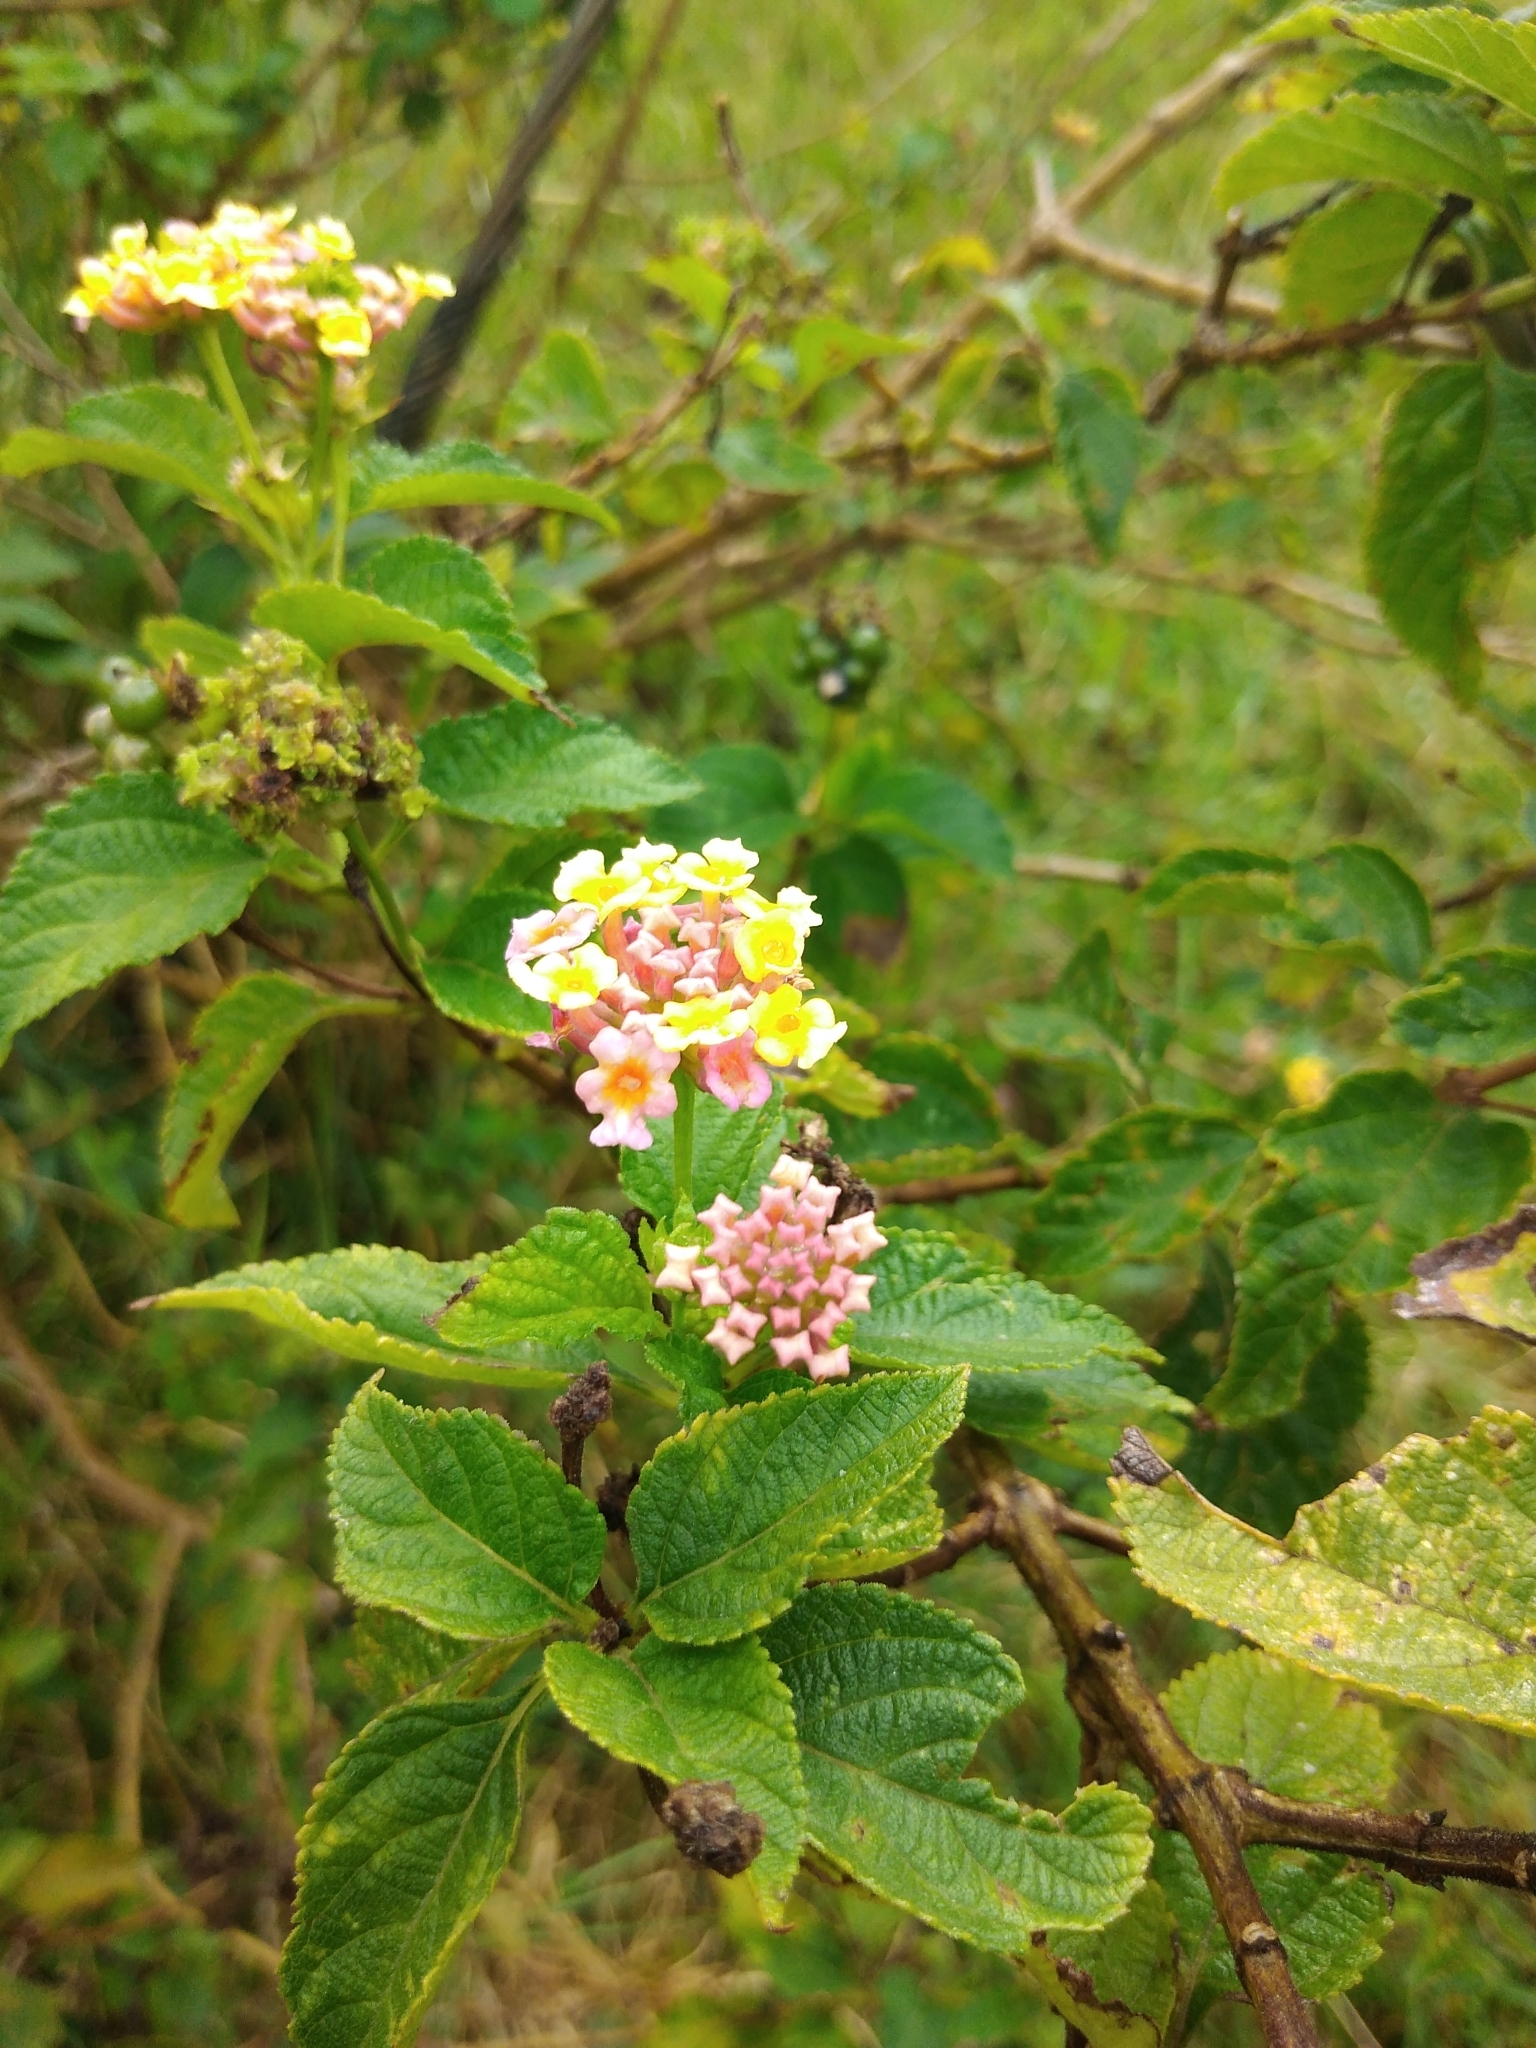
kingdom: Plantae
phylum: Tracheophyta
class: Magnoliopsida
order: Lamiales
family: Verbenaceae
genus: Lantana
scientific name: Lantana camara
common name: Lantana
